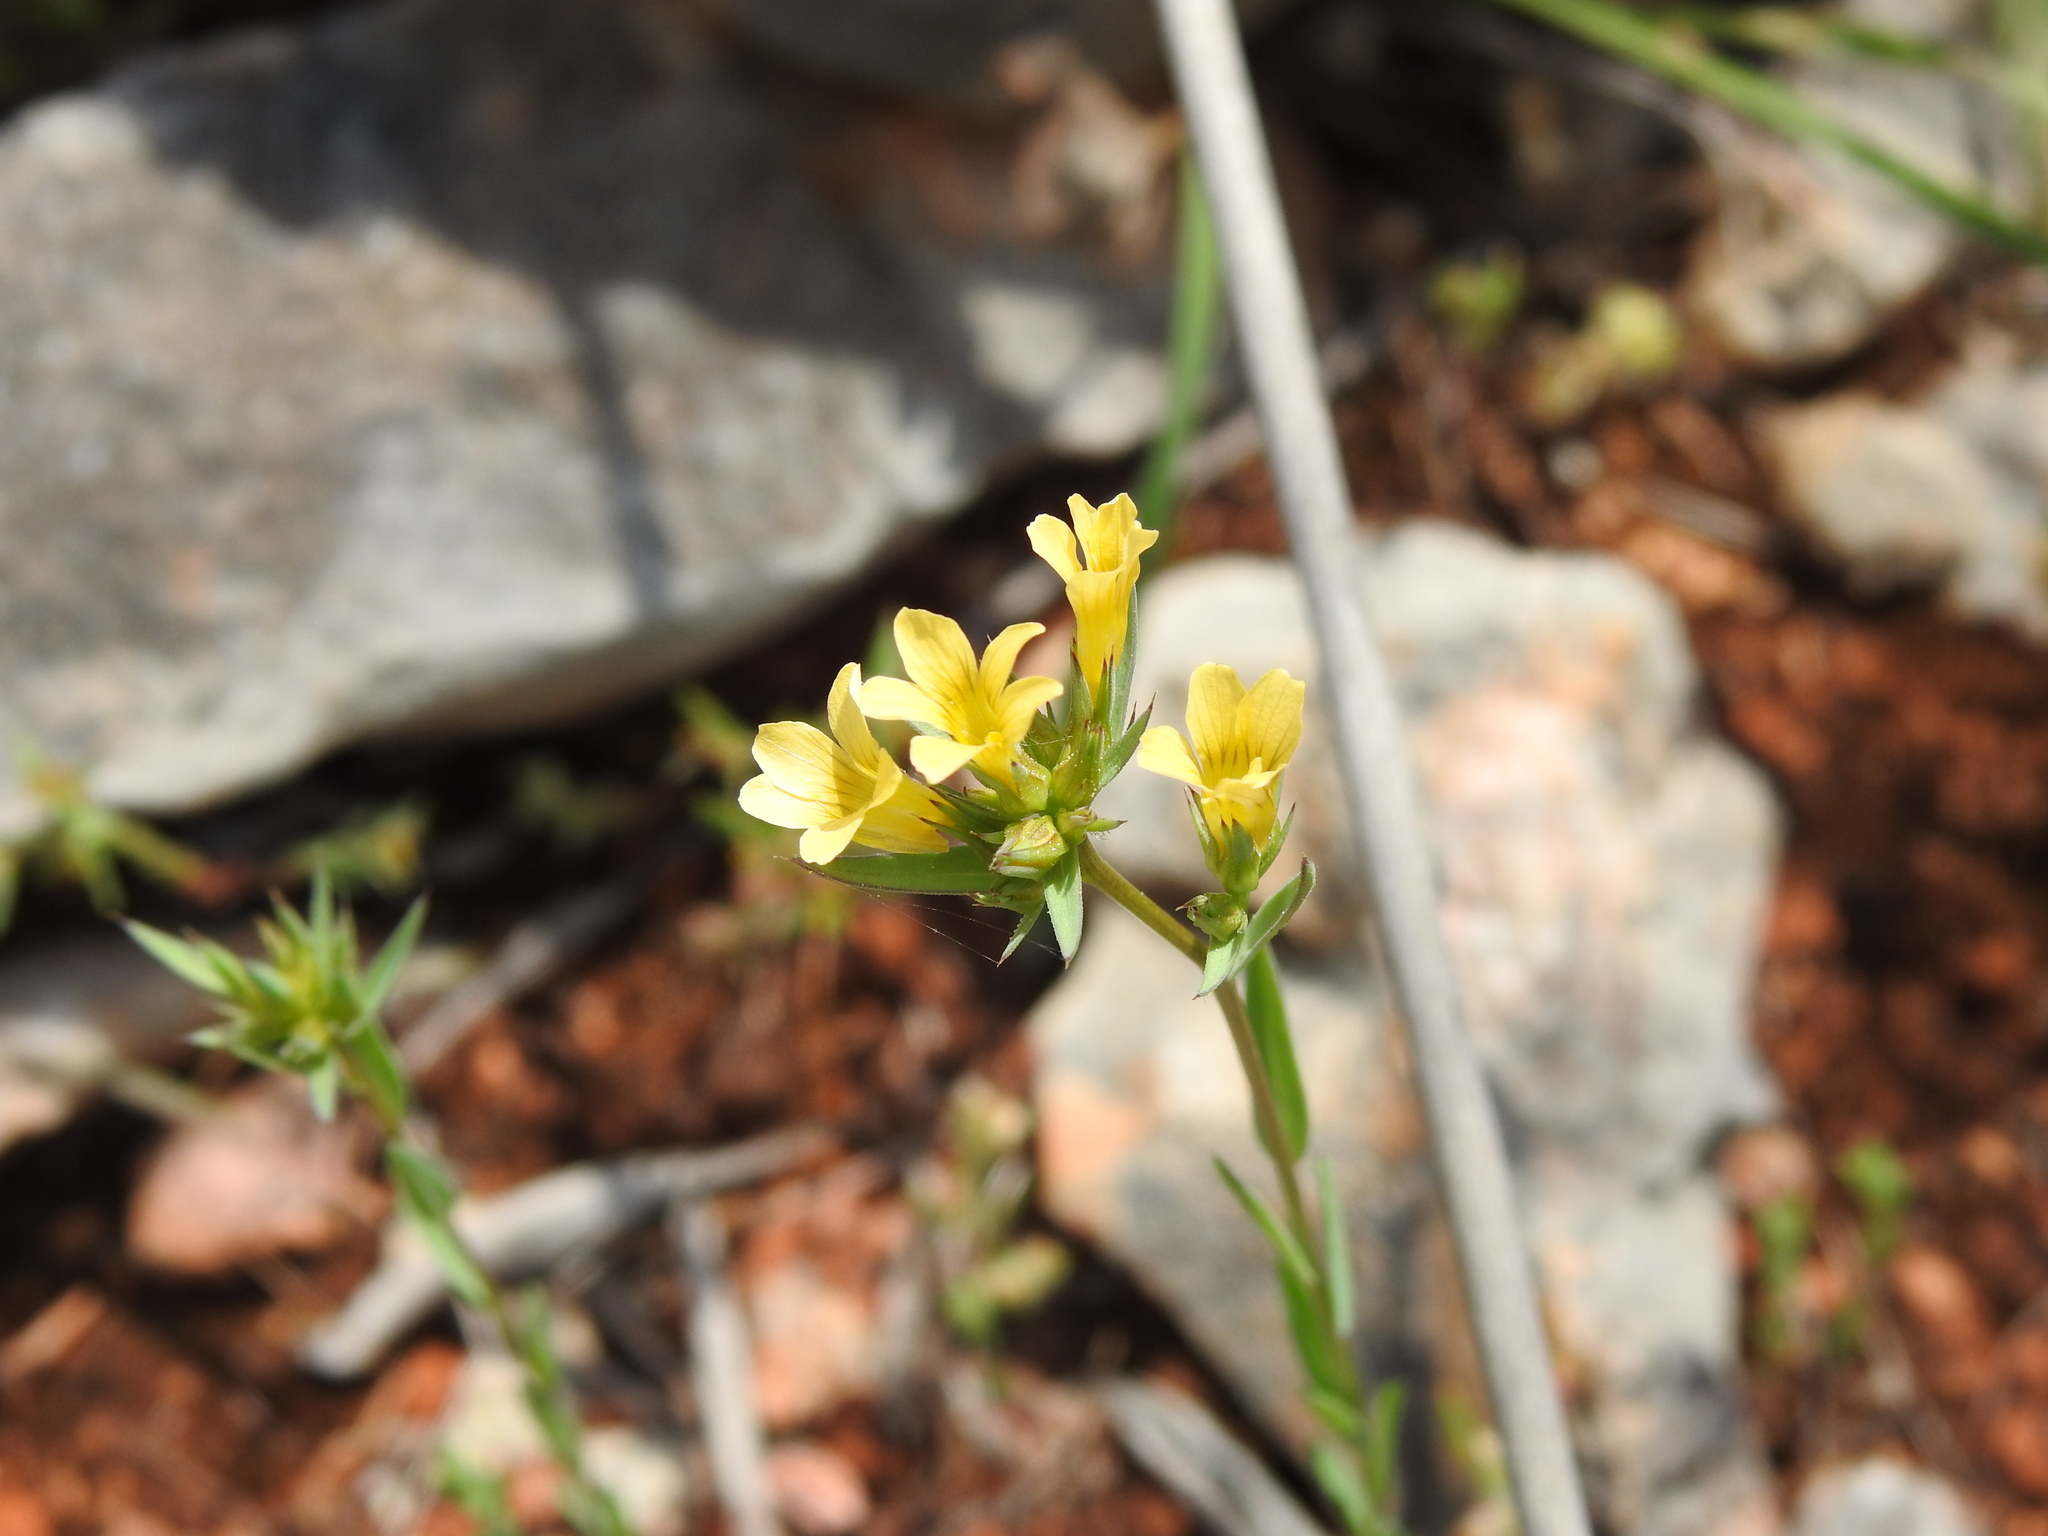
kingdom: Plantae
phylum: Tracheophyta
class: Magnoliopsida
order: Malpighiales
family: Linaceae
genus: Linum
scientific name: Linum strictum
